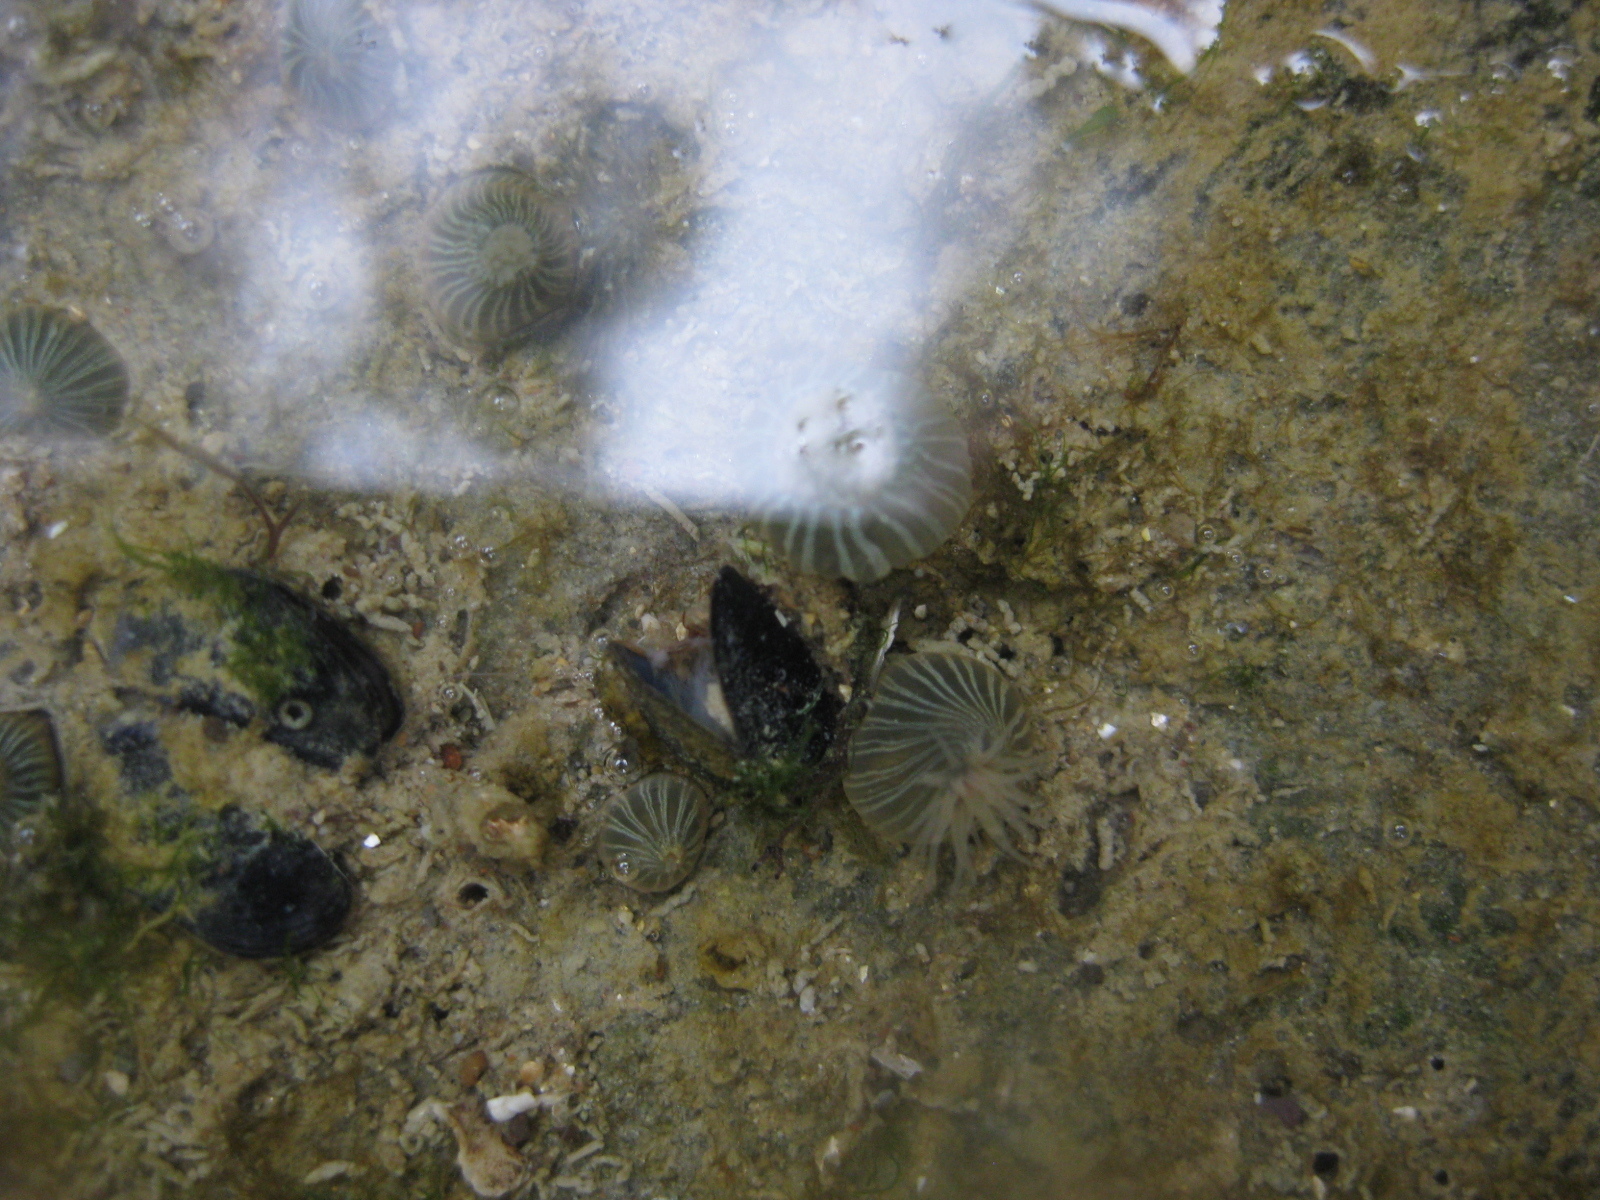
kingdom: Animalia
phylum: Cnidaria
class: Anthozoa
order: Actiniaria
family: Diadumenidae
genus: Diadumene
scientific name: Diadumene lineata
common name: Orange-striped anemone
